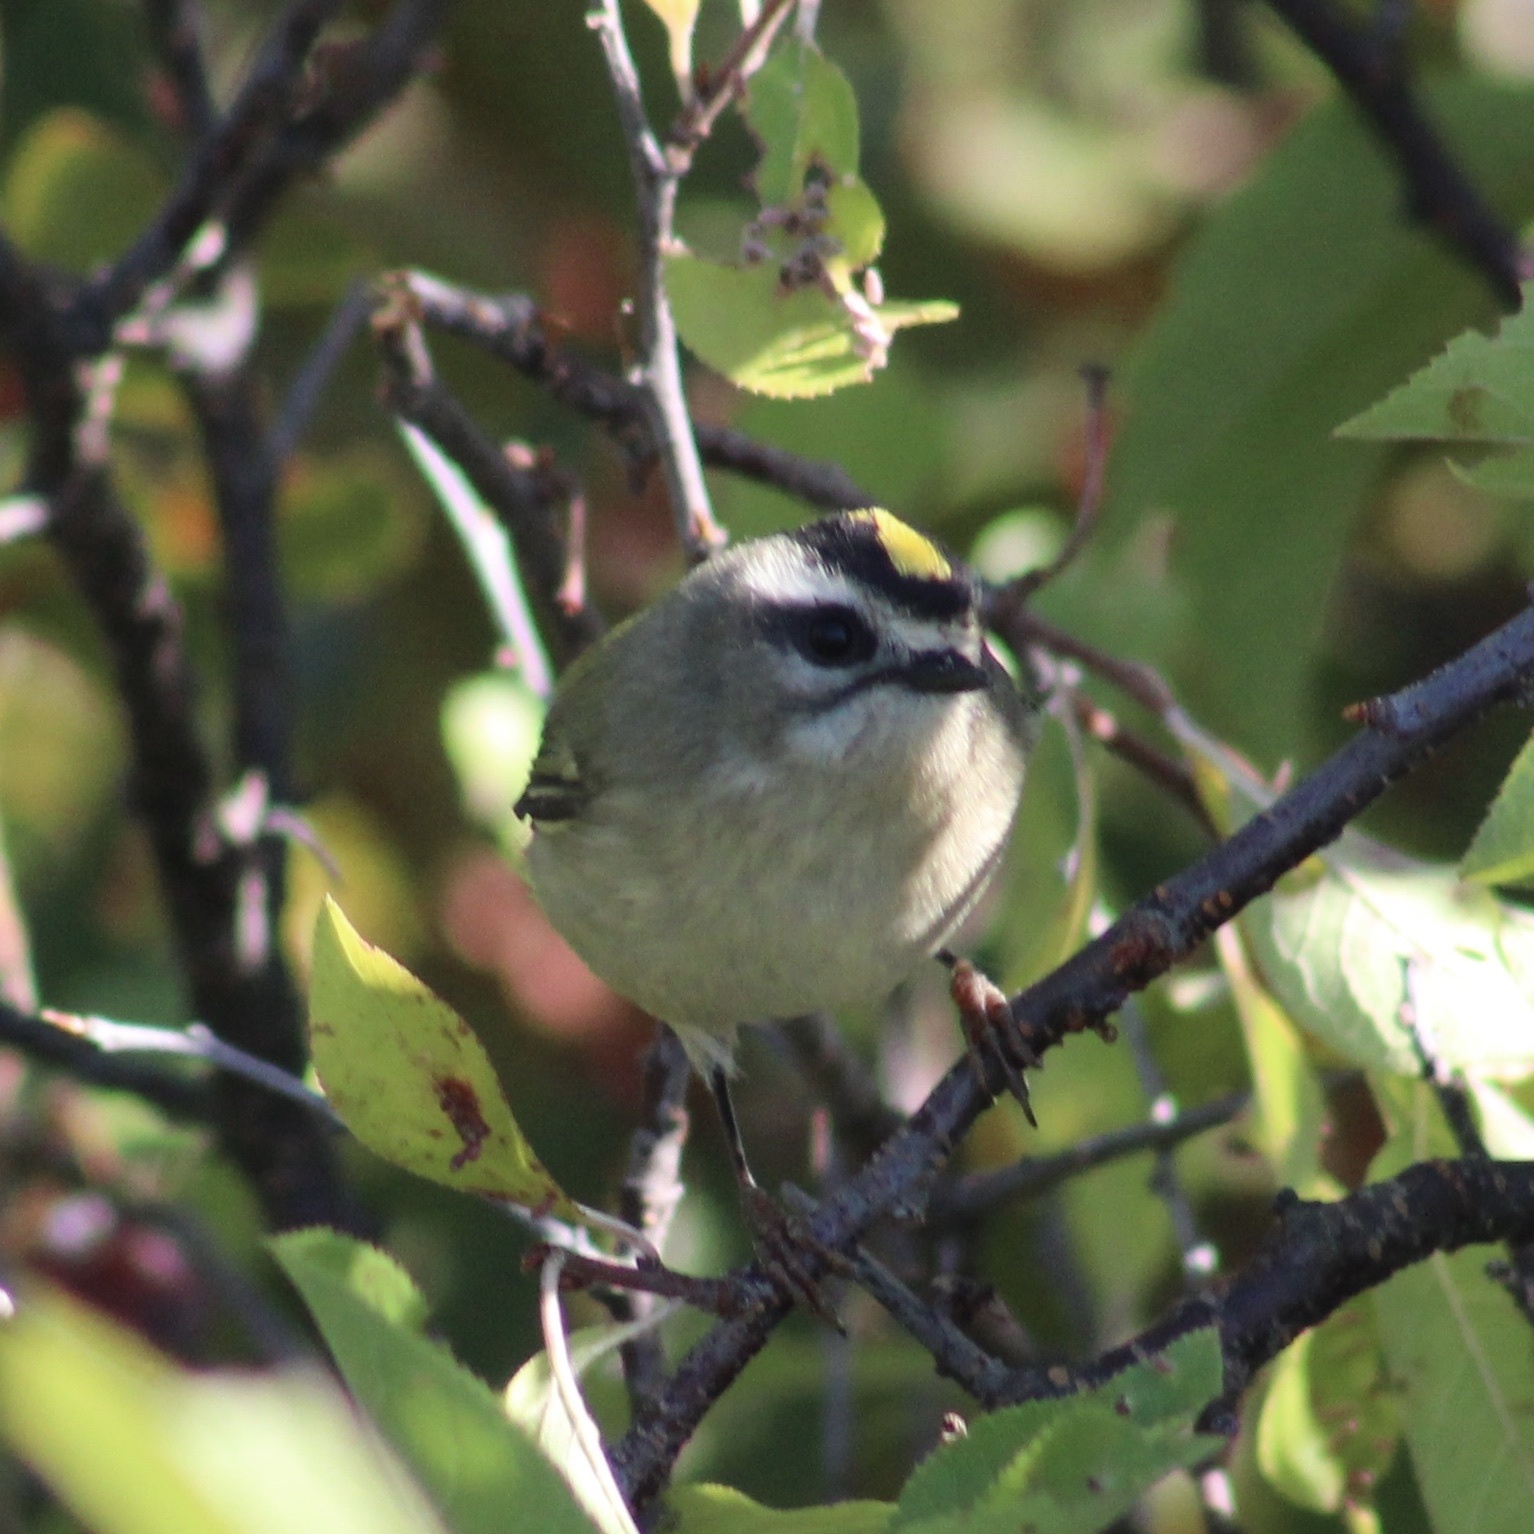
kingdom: Animalia
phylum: Chordata
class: Aves
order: Passeriformes
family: Regulidae
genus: Regulus
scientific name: Regulus satrapa
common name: Golden-crowned kinglet
